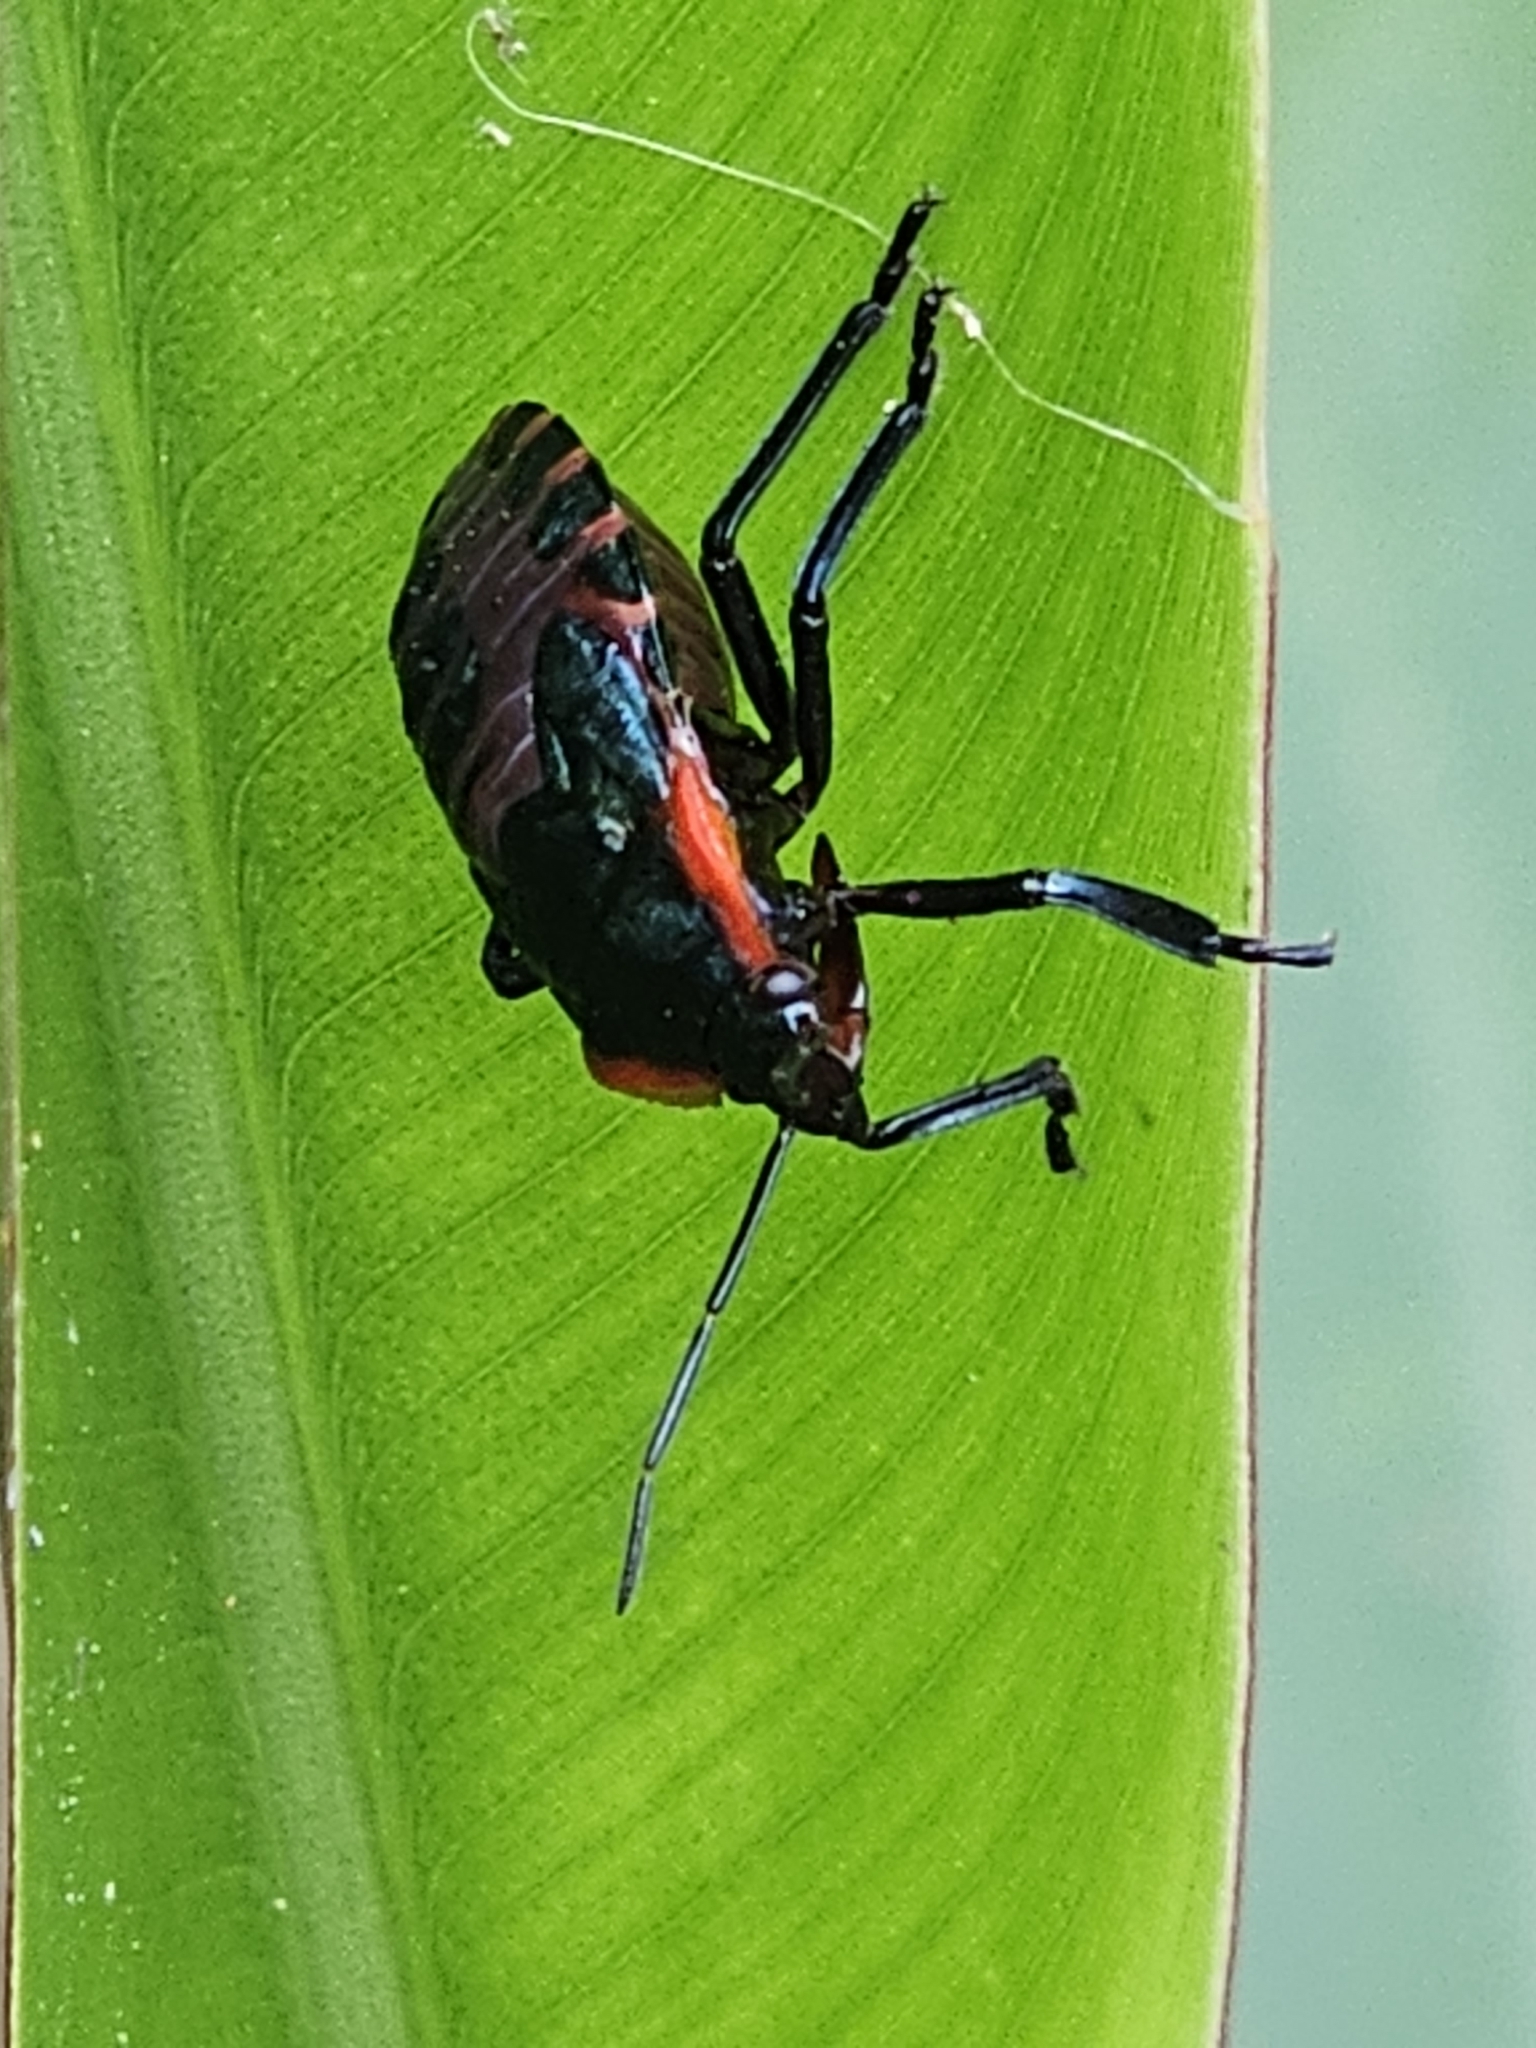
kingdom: Animalia
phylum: Arthropoda
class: Insecta
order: Hemiptera
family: Pentatomidae
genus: Alcaeorrhynchus
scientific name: Alcaeorrhynchus grandis
